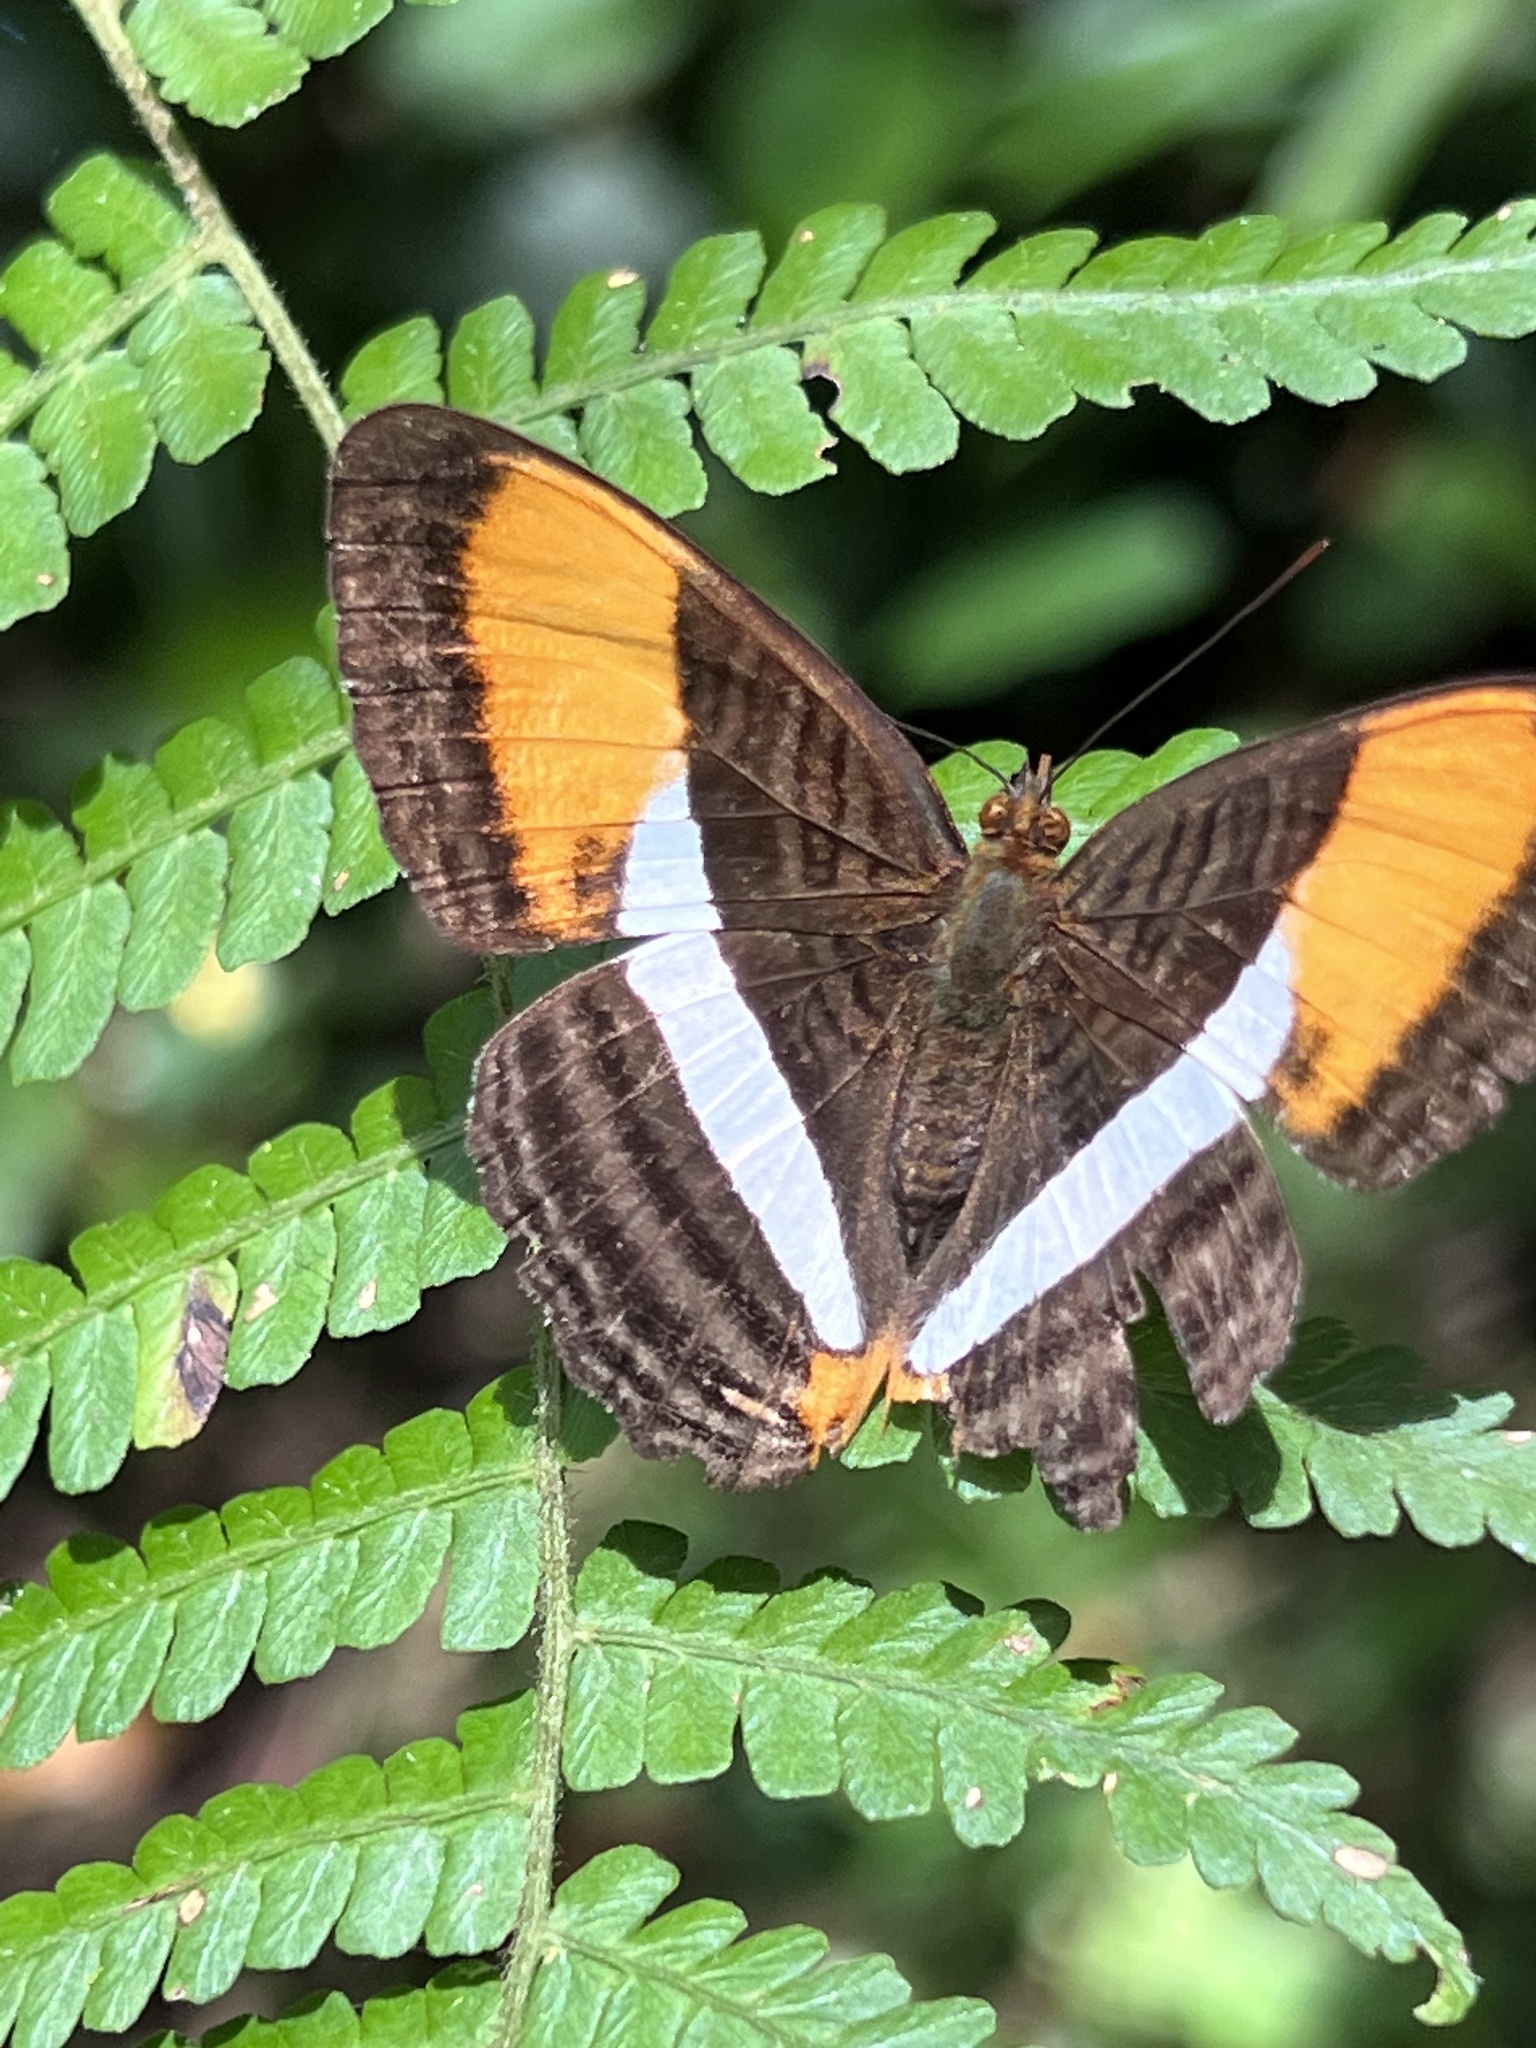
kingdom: Animalia
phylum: Arthropoda
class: Insecta
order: Lepidoptera
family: Nymphalidae
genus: Limenitis
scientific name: Limenitis cytherea
